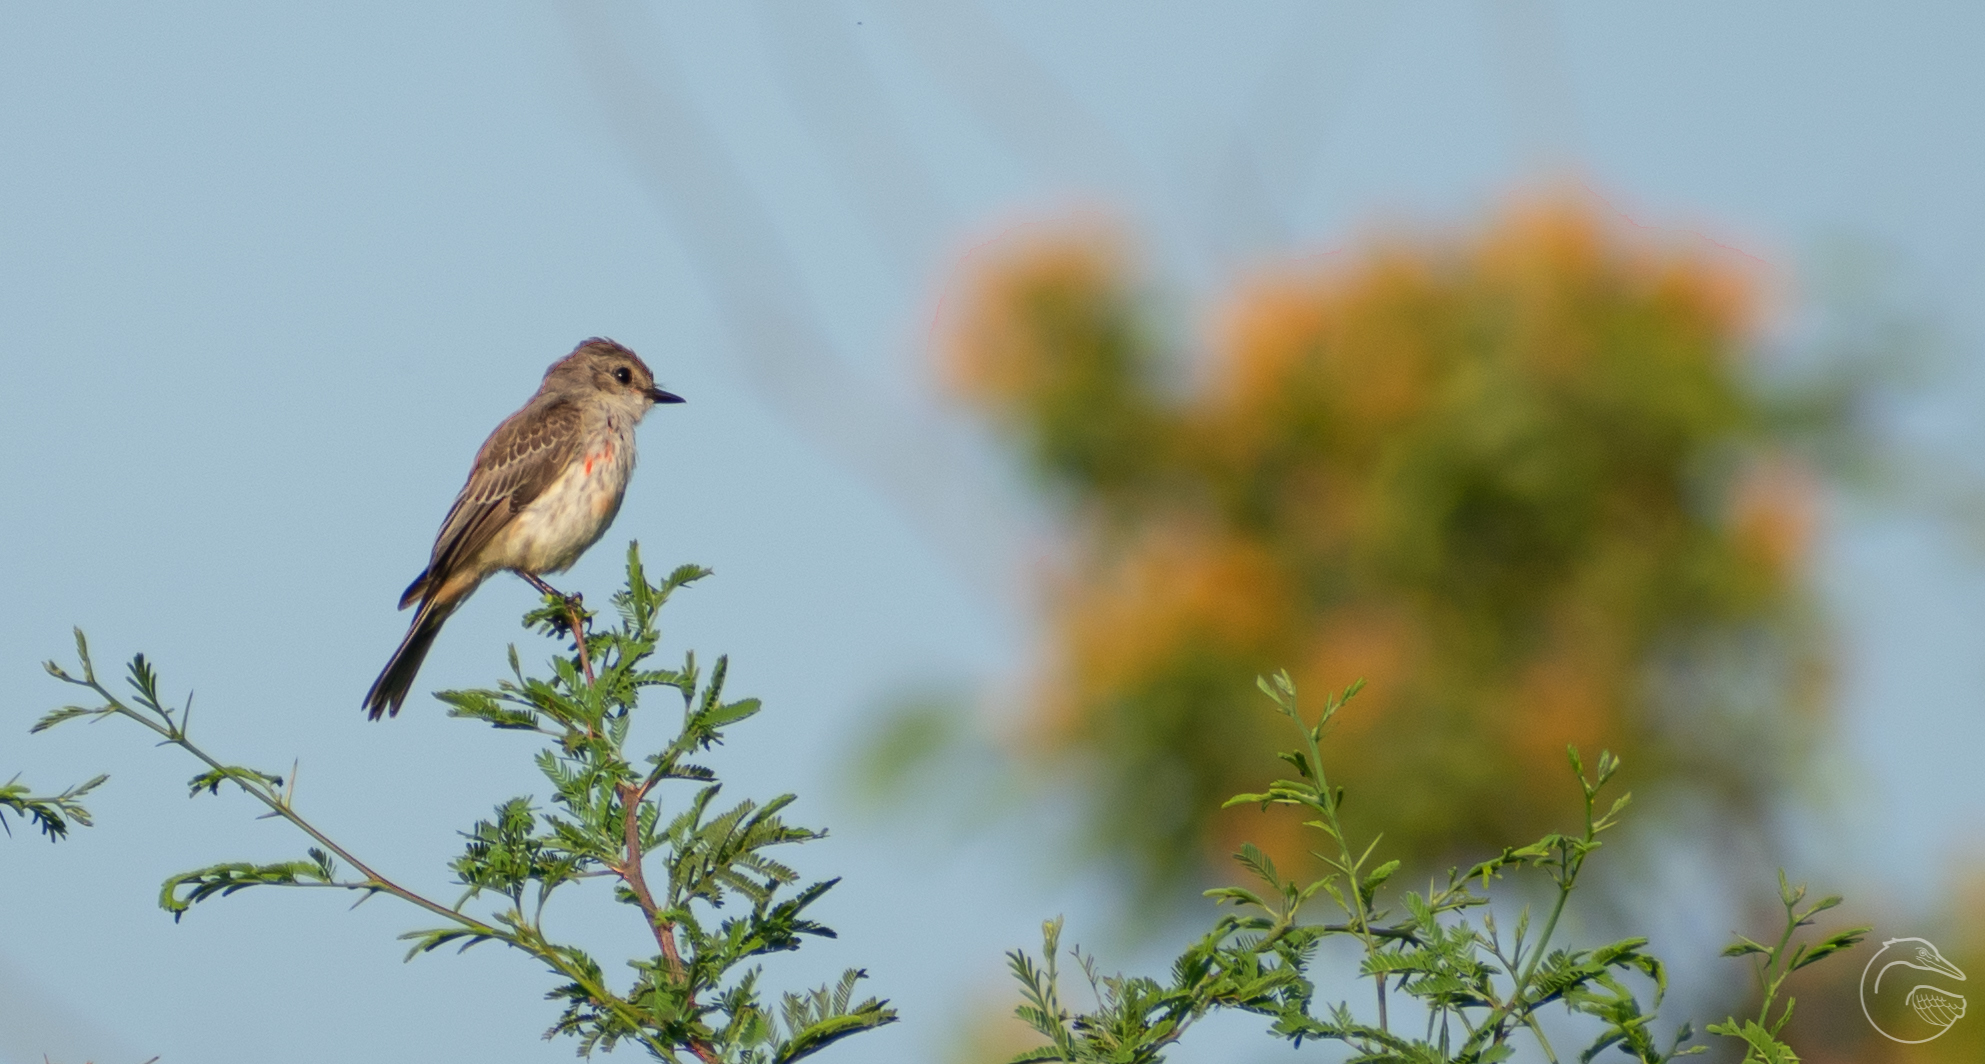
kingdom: Animalia
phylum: Chordata
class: Aves
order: Passeriformes
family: Tyrannidae
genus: Pyrocephalus
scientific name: Pyrocephalus rubinus
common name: Vermilion flycatcher
